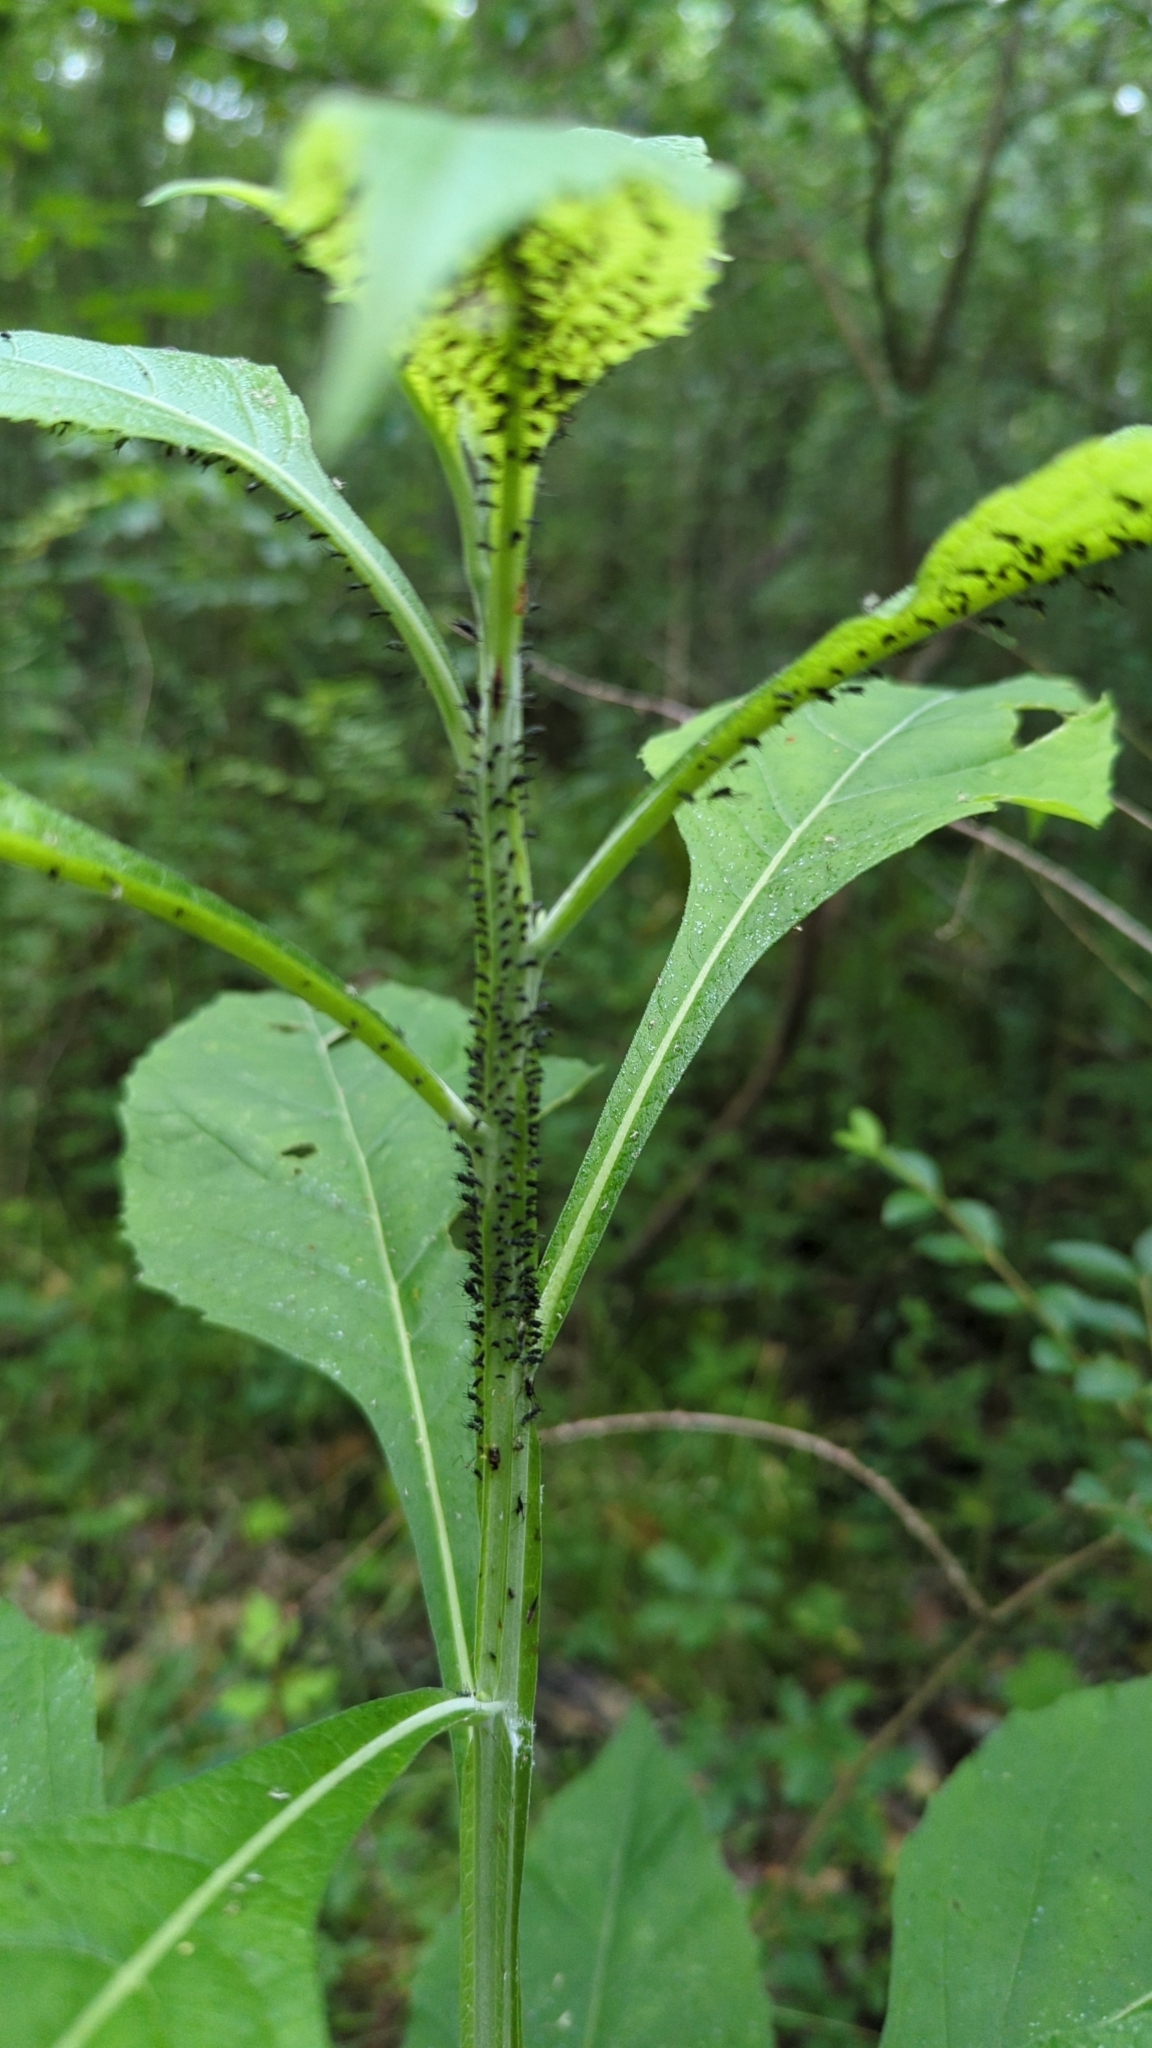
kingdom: Animalia
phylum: Arthropoda
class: Insecta
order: Hemiptera
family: Aphididae
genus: Uroleucon
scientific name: Uroleucon verbesinae
